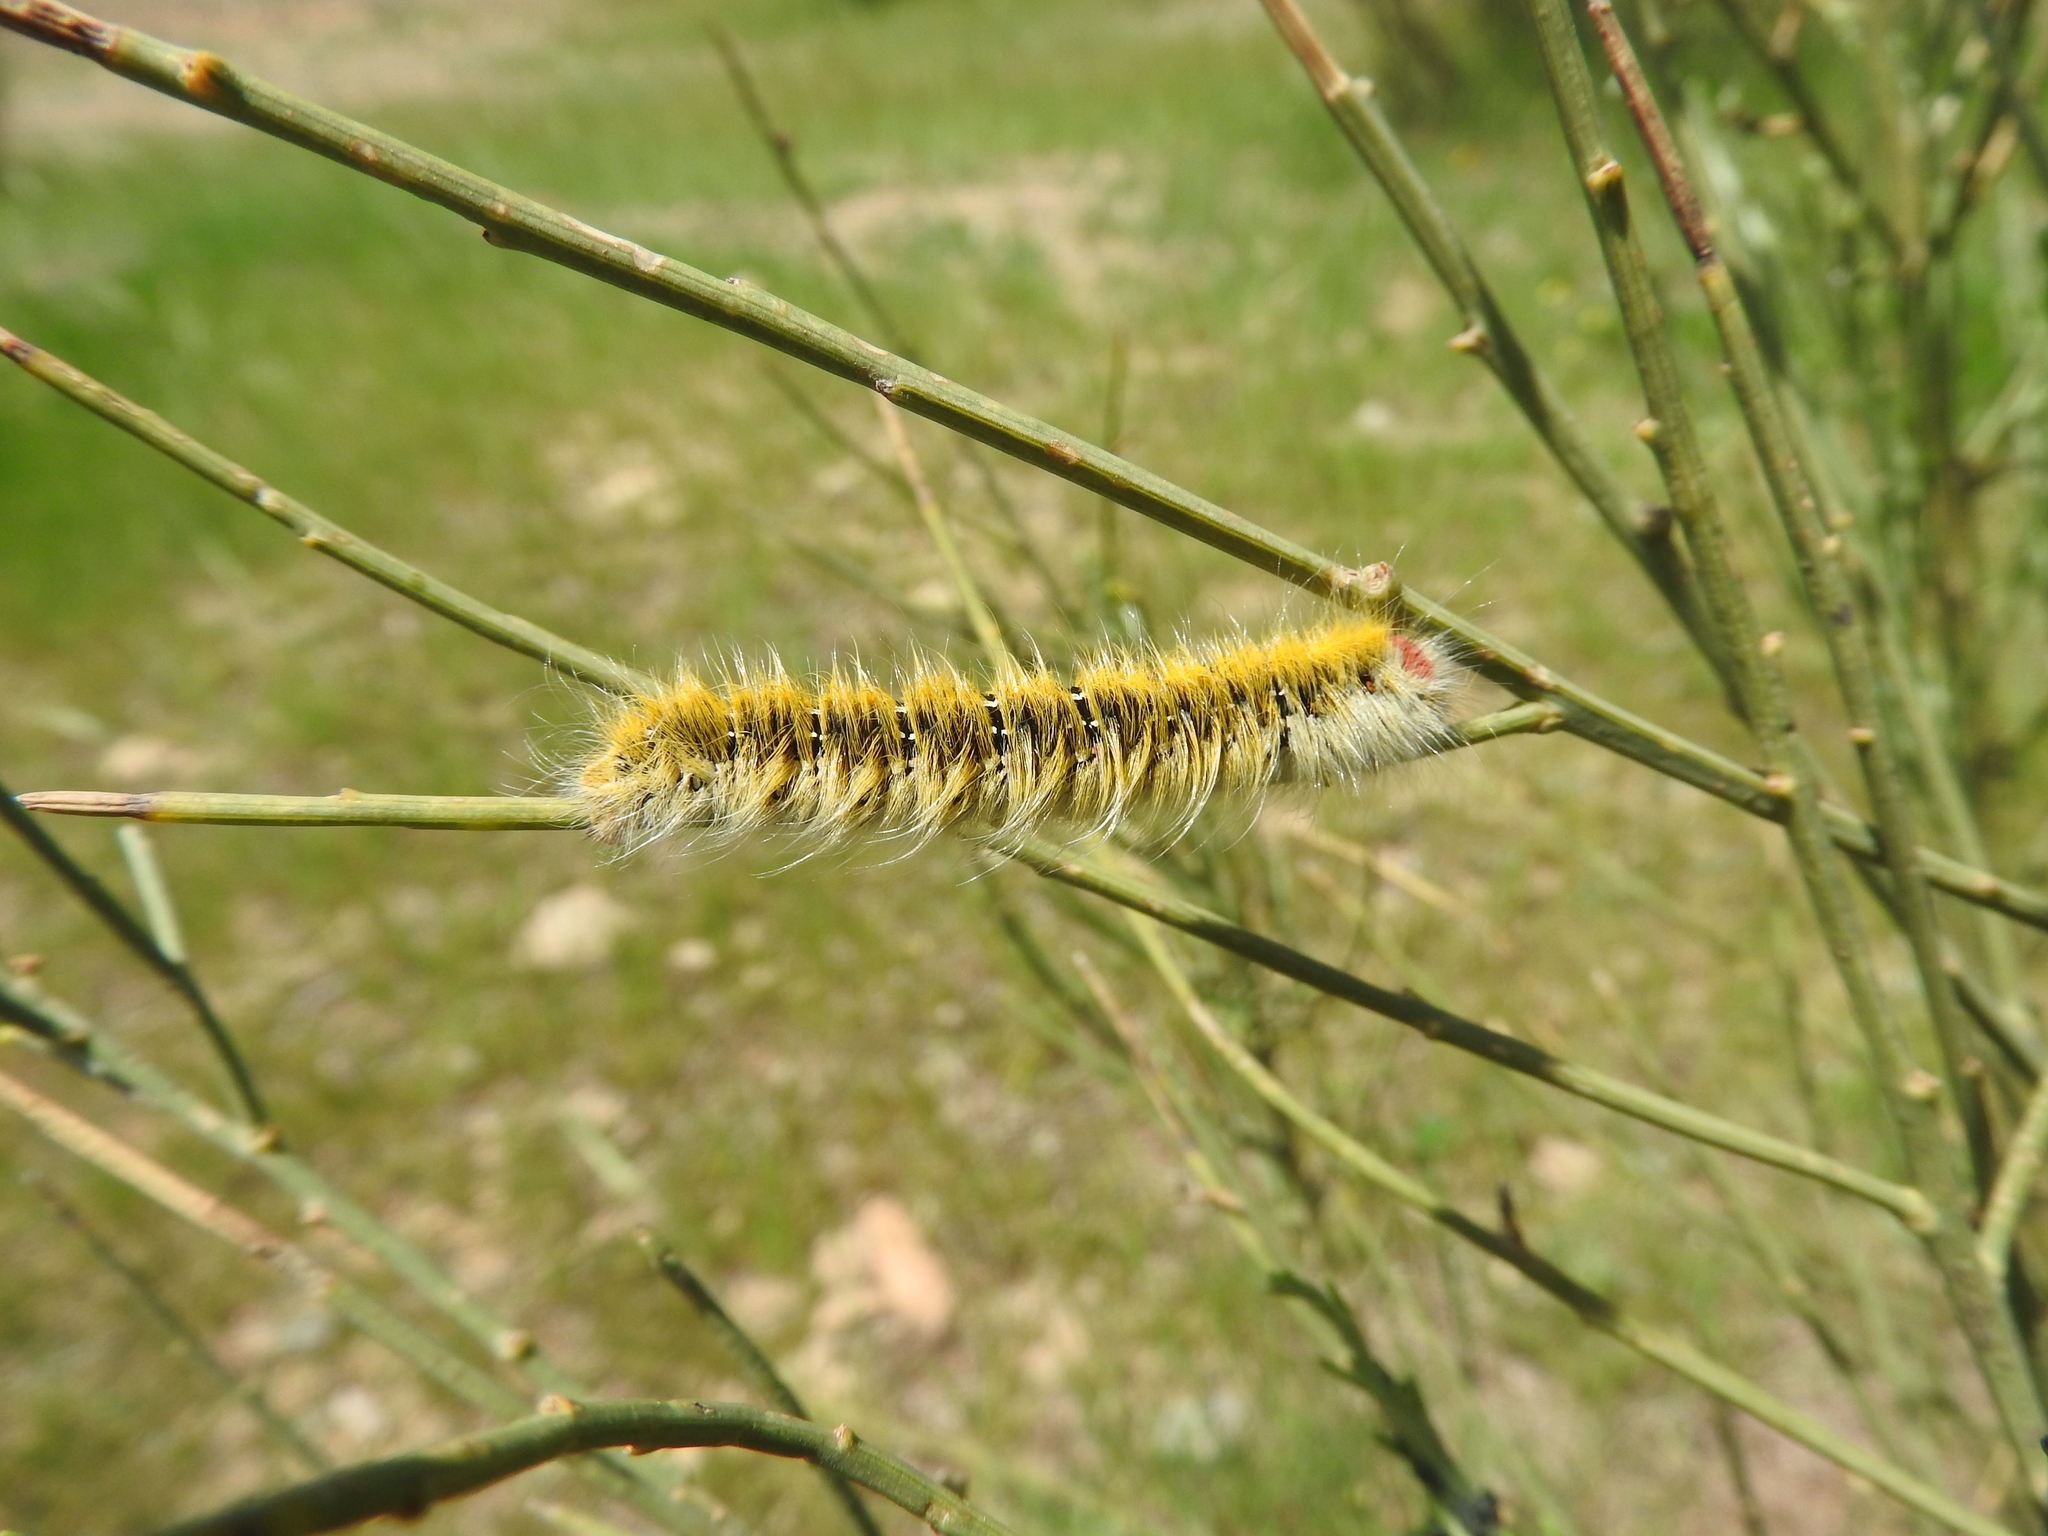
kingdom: Animalia
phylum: Arthropoda
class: Insecta
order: Lepidoptera
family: Lasiocampidae
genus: Lasiocampa
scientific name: Lasiocampa trifolii
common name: Grass eggar
